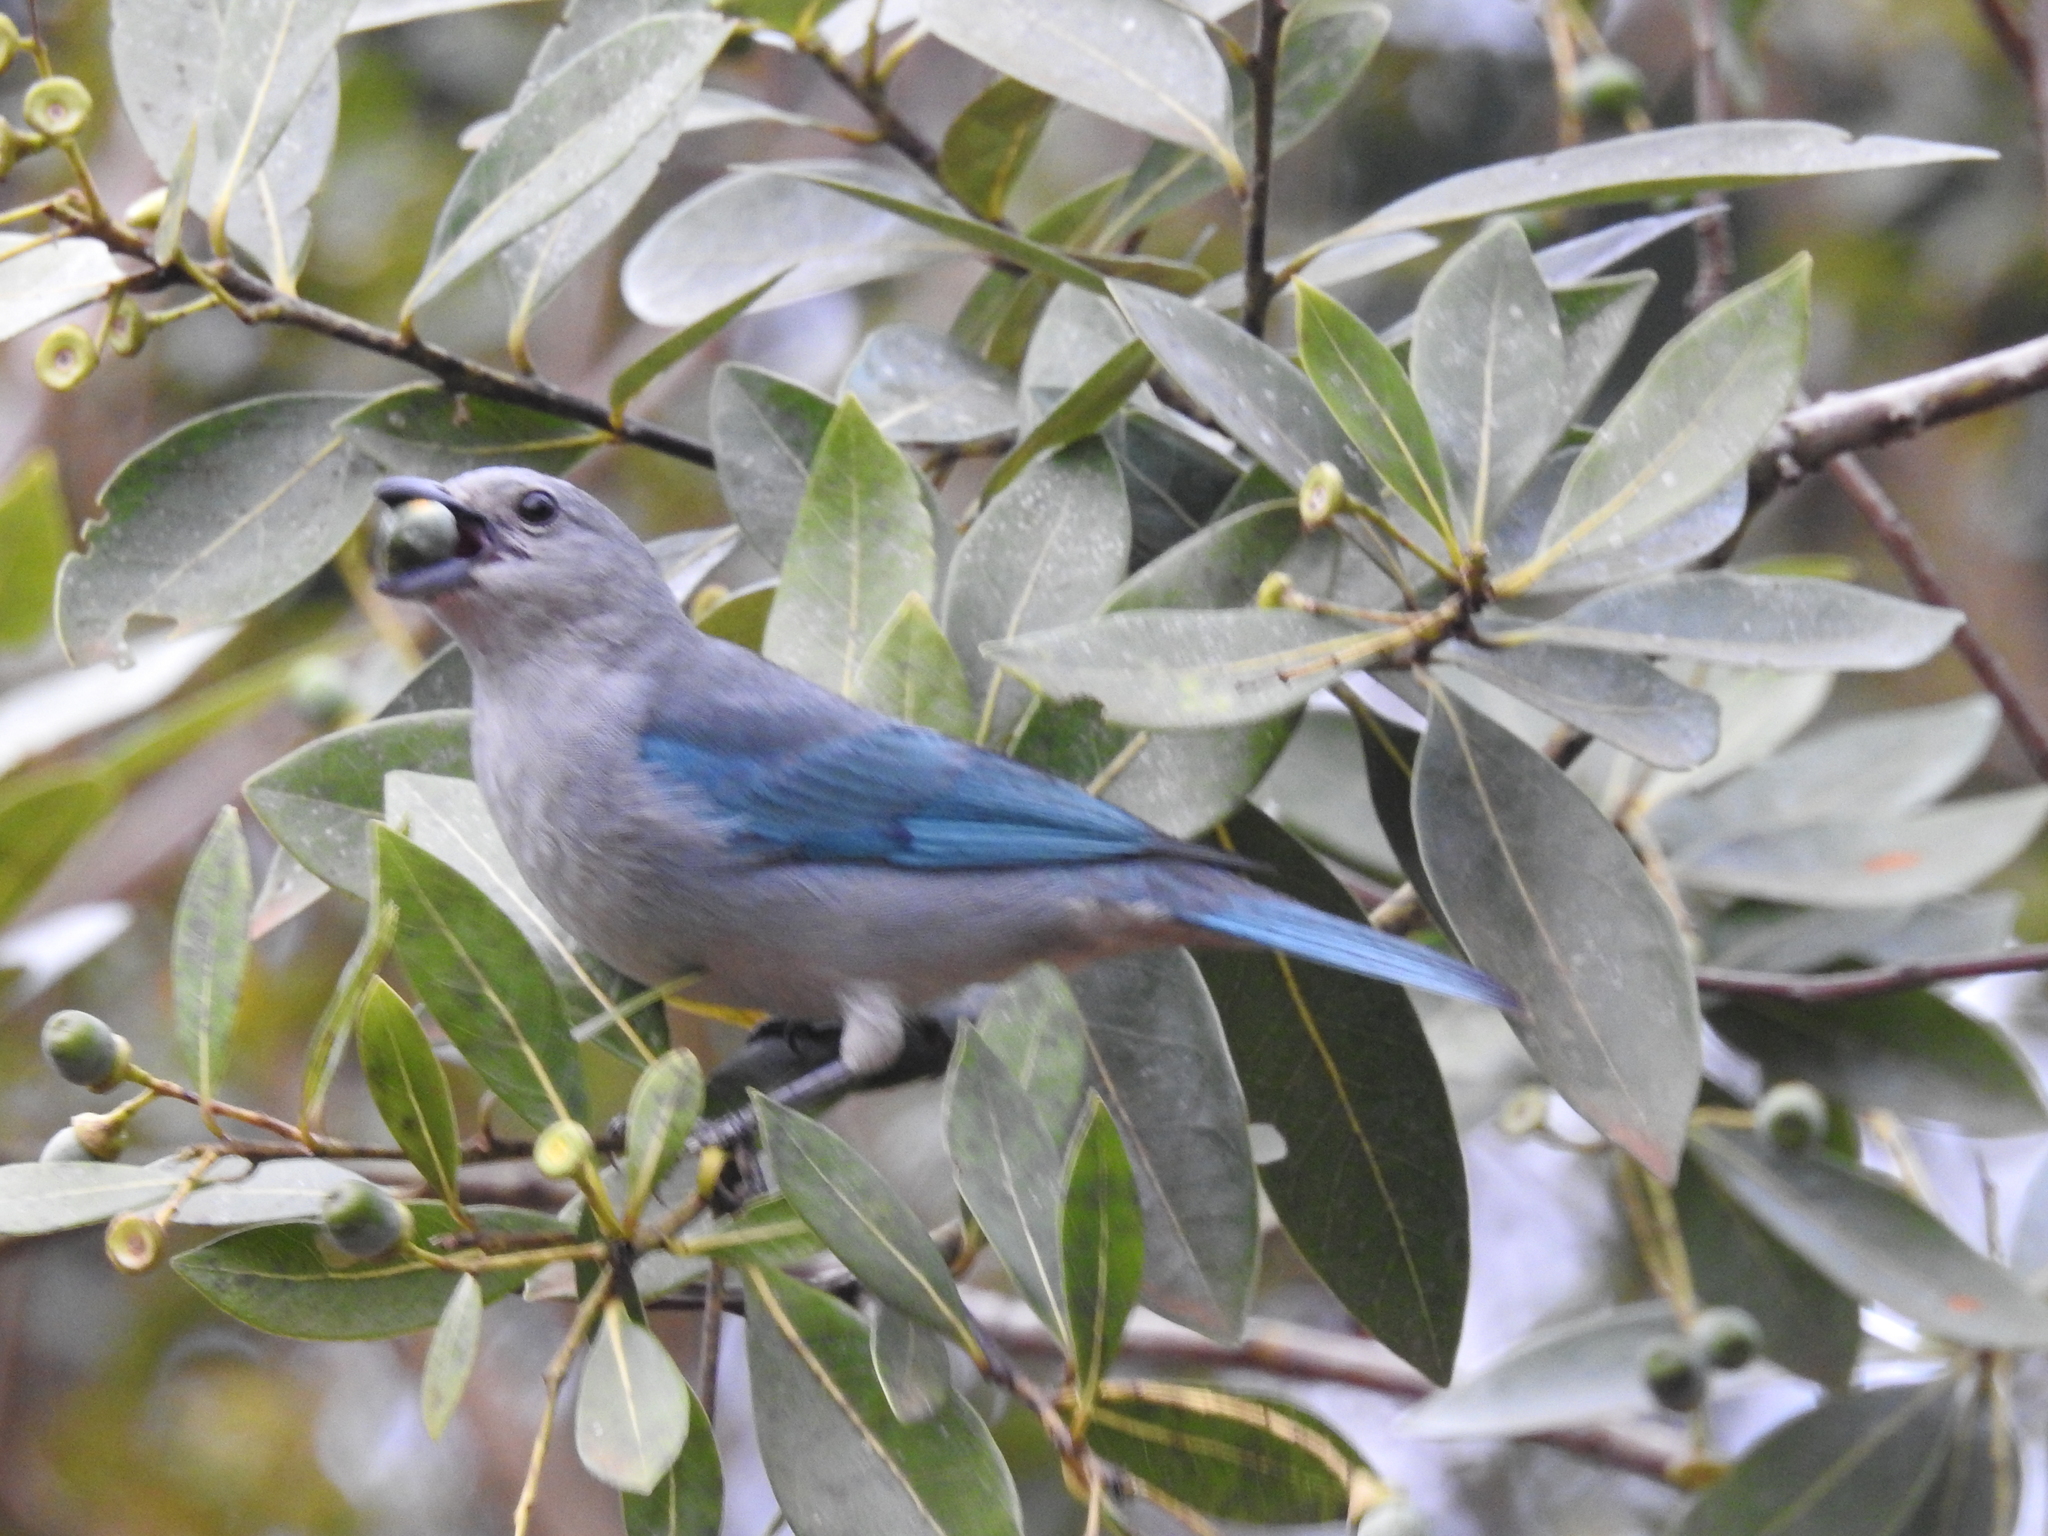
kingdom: Animalia
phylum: Chordata
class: Aves
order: Passeriformes
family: Thraupidae
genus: Thraupis
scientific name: Thraupis sayaca
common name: Sayaca tanager
